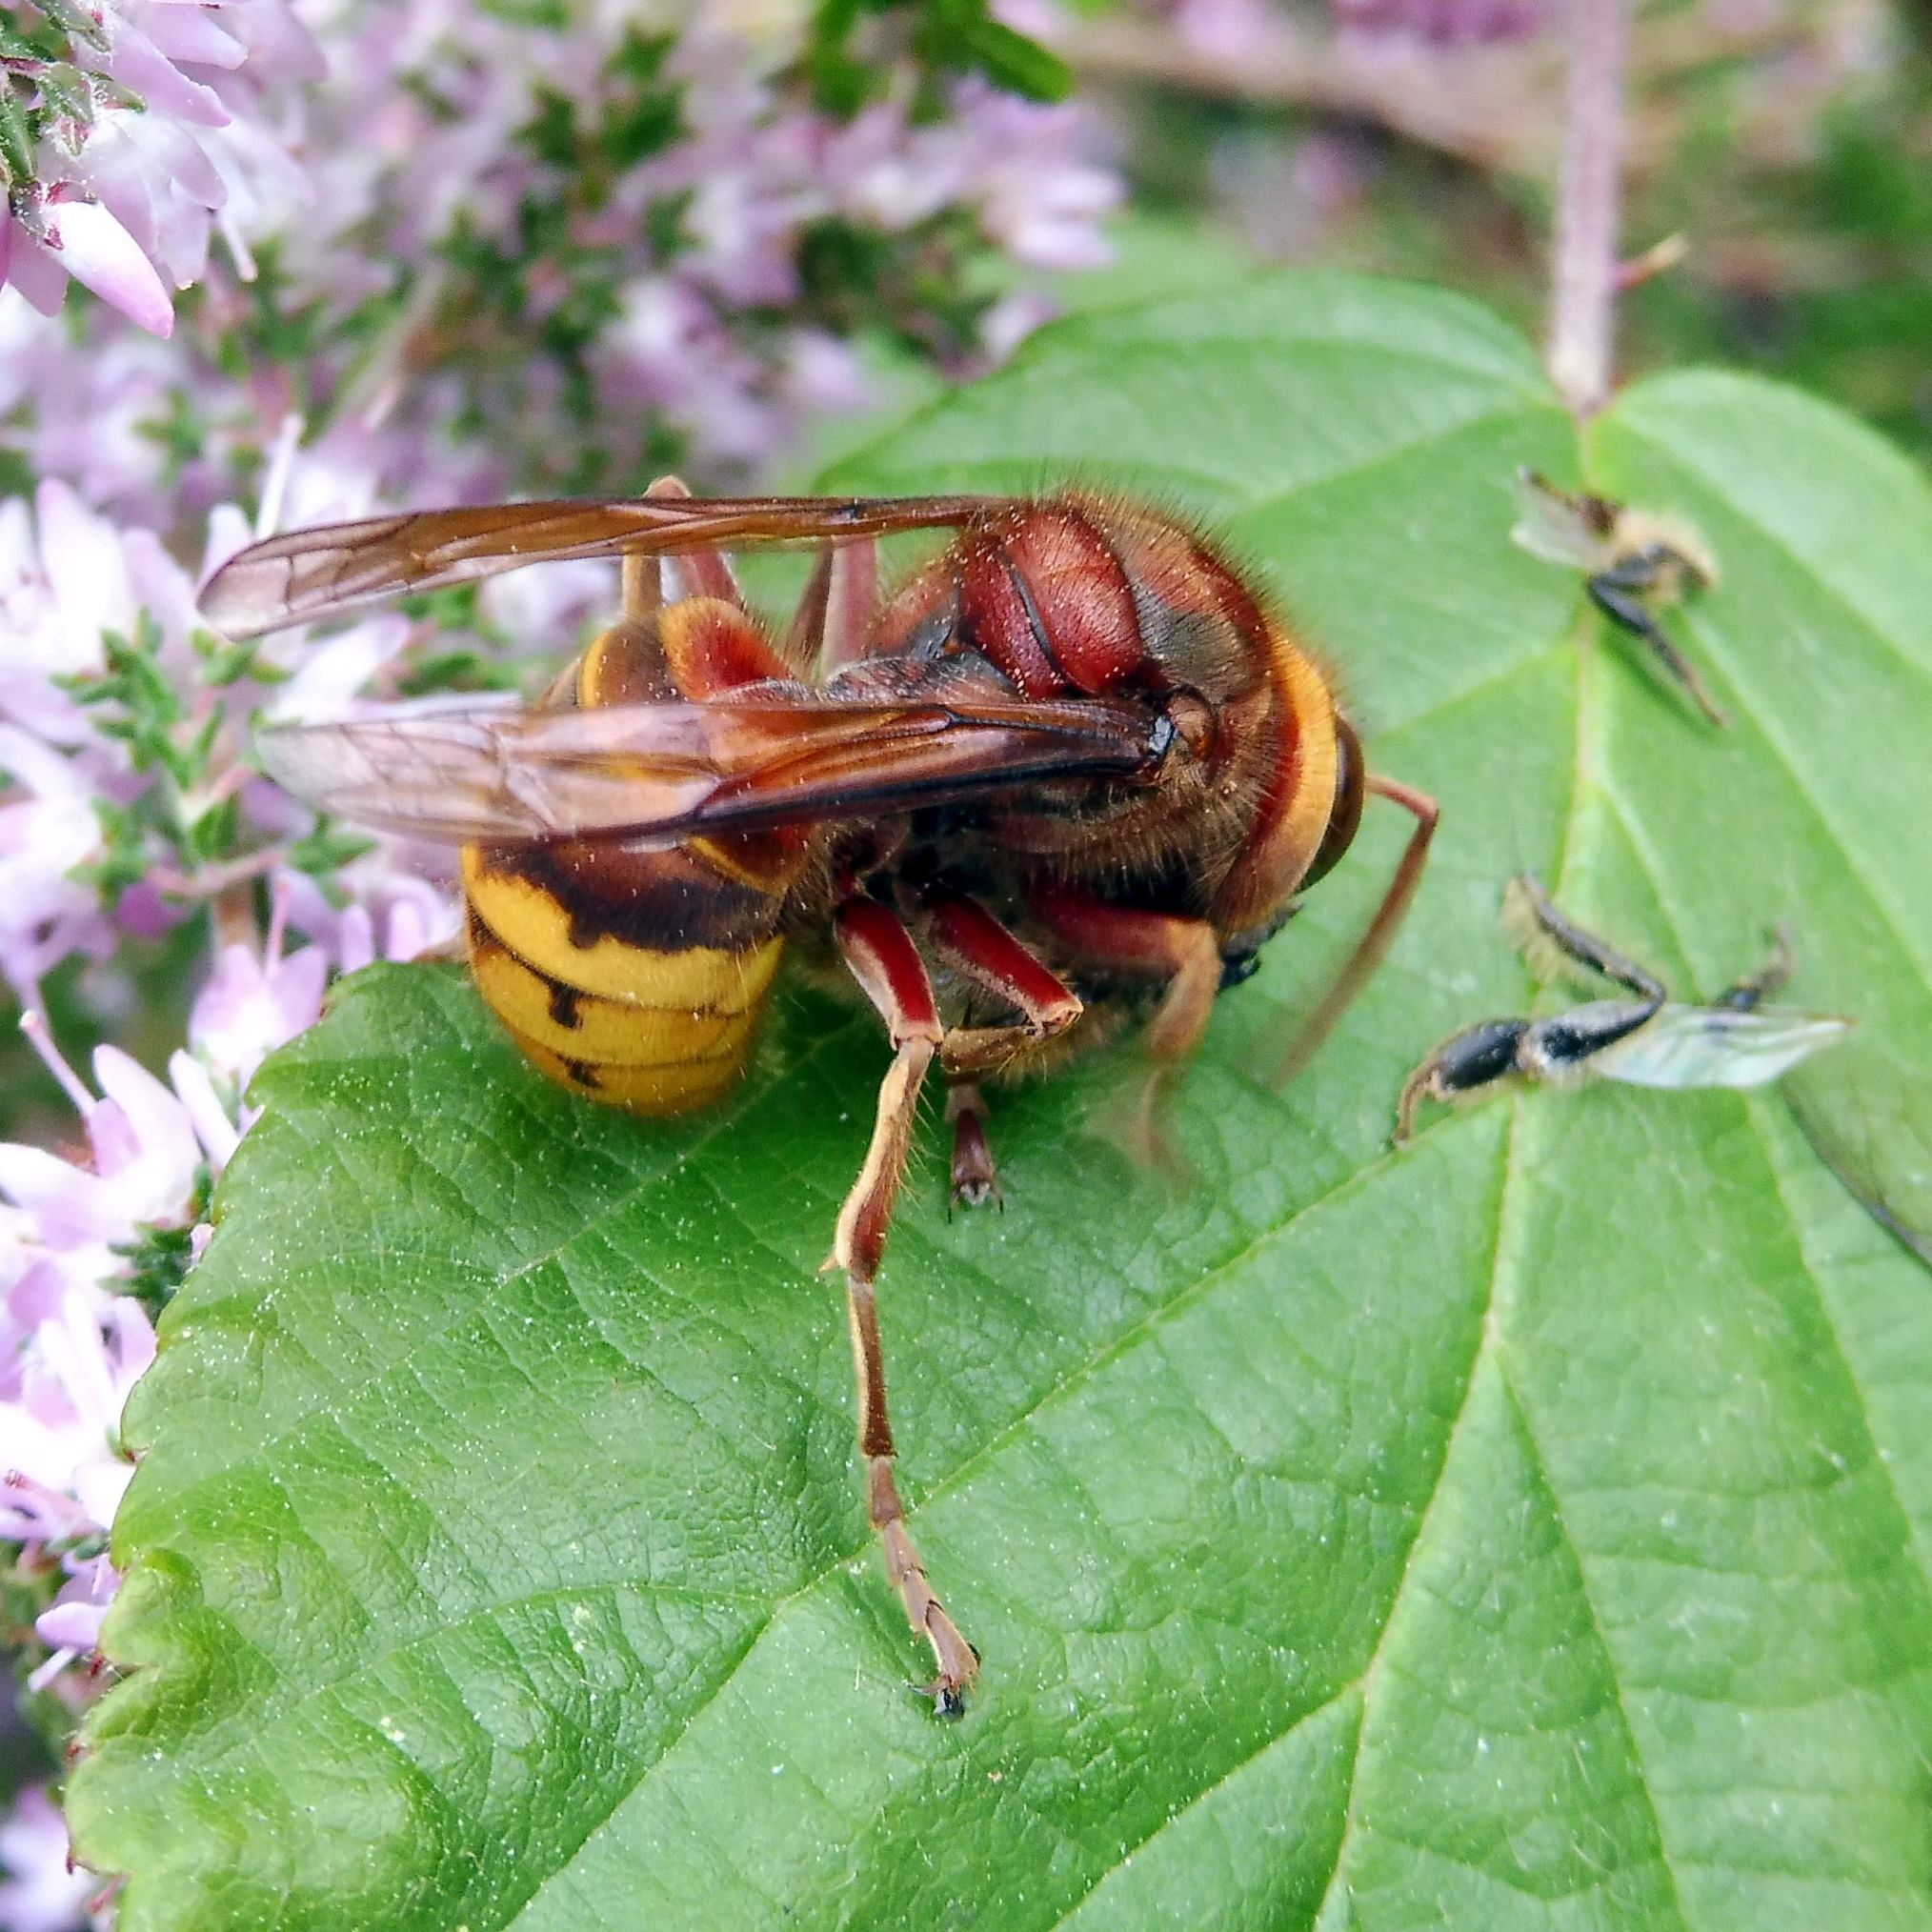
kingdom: Animalia
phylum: Arthropoda
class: Insecta
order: Hymenoptera
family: Vespidae
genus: Vespa
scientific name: Vespa crabro
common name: Hornet
